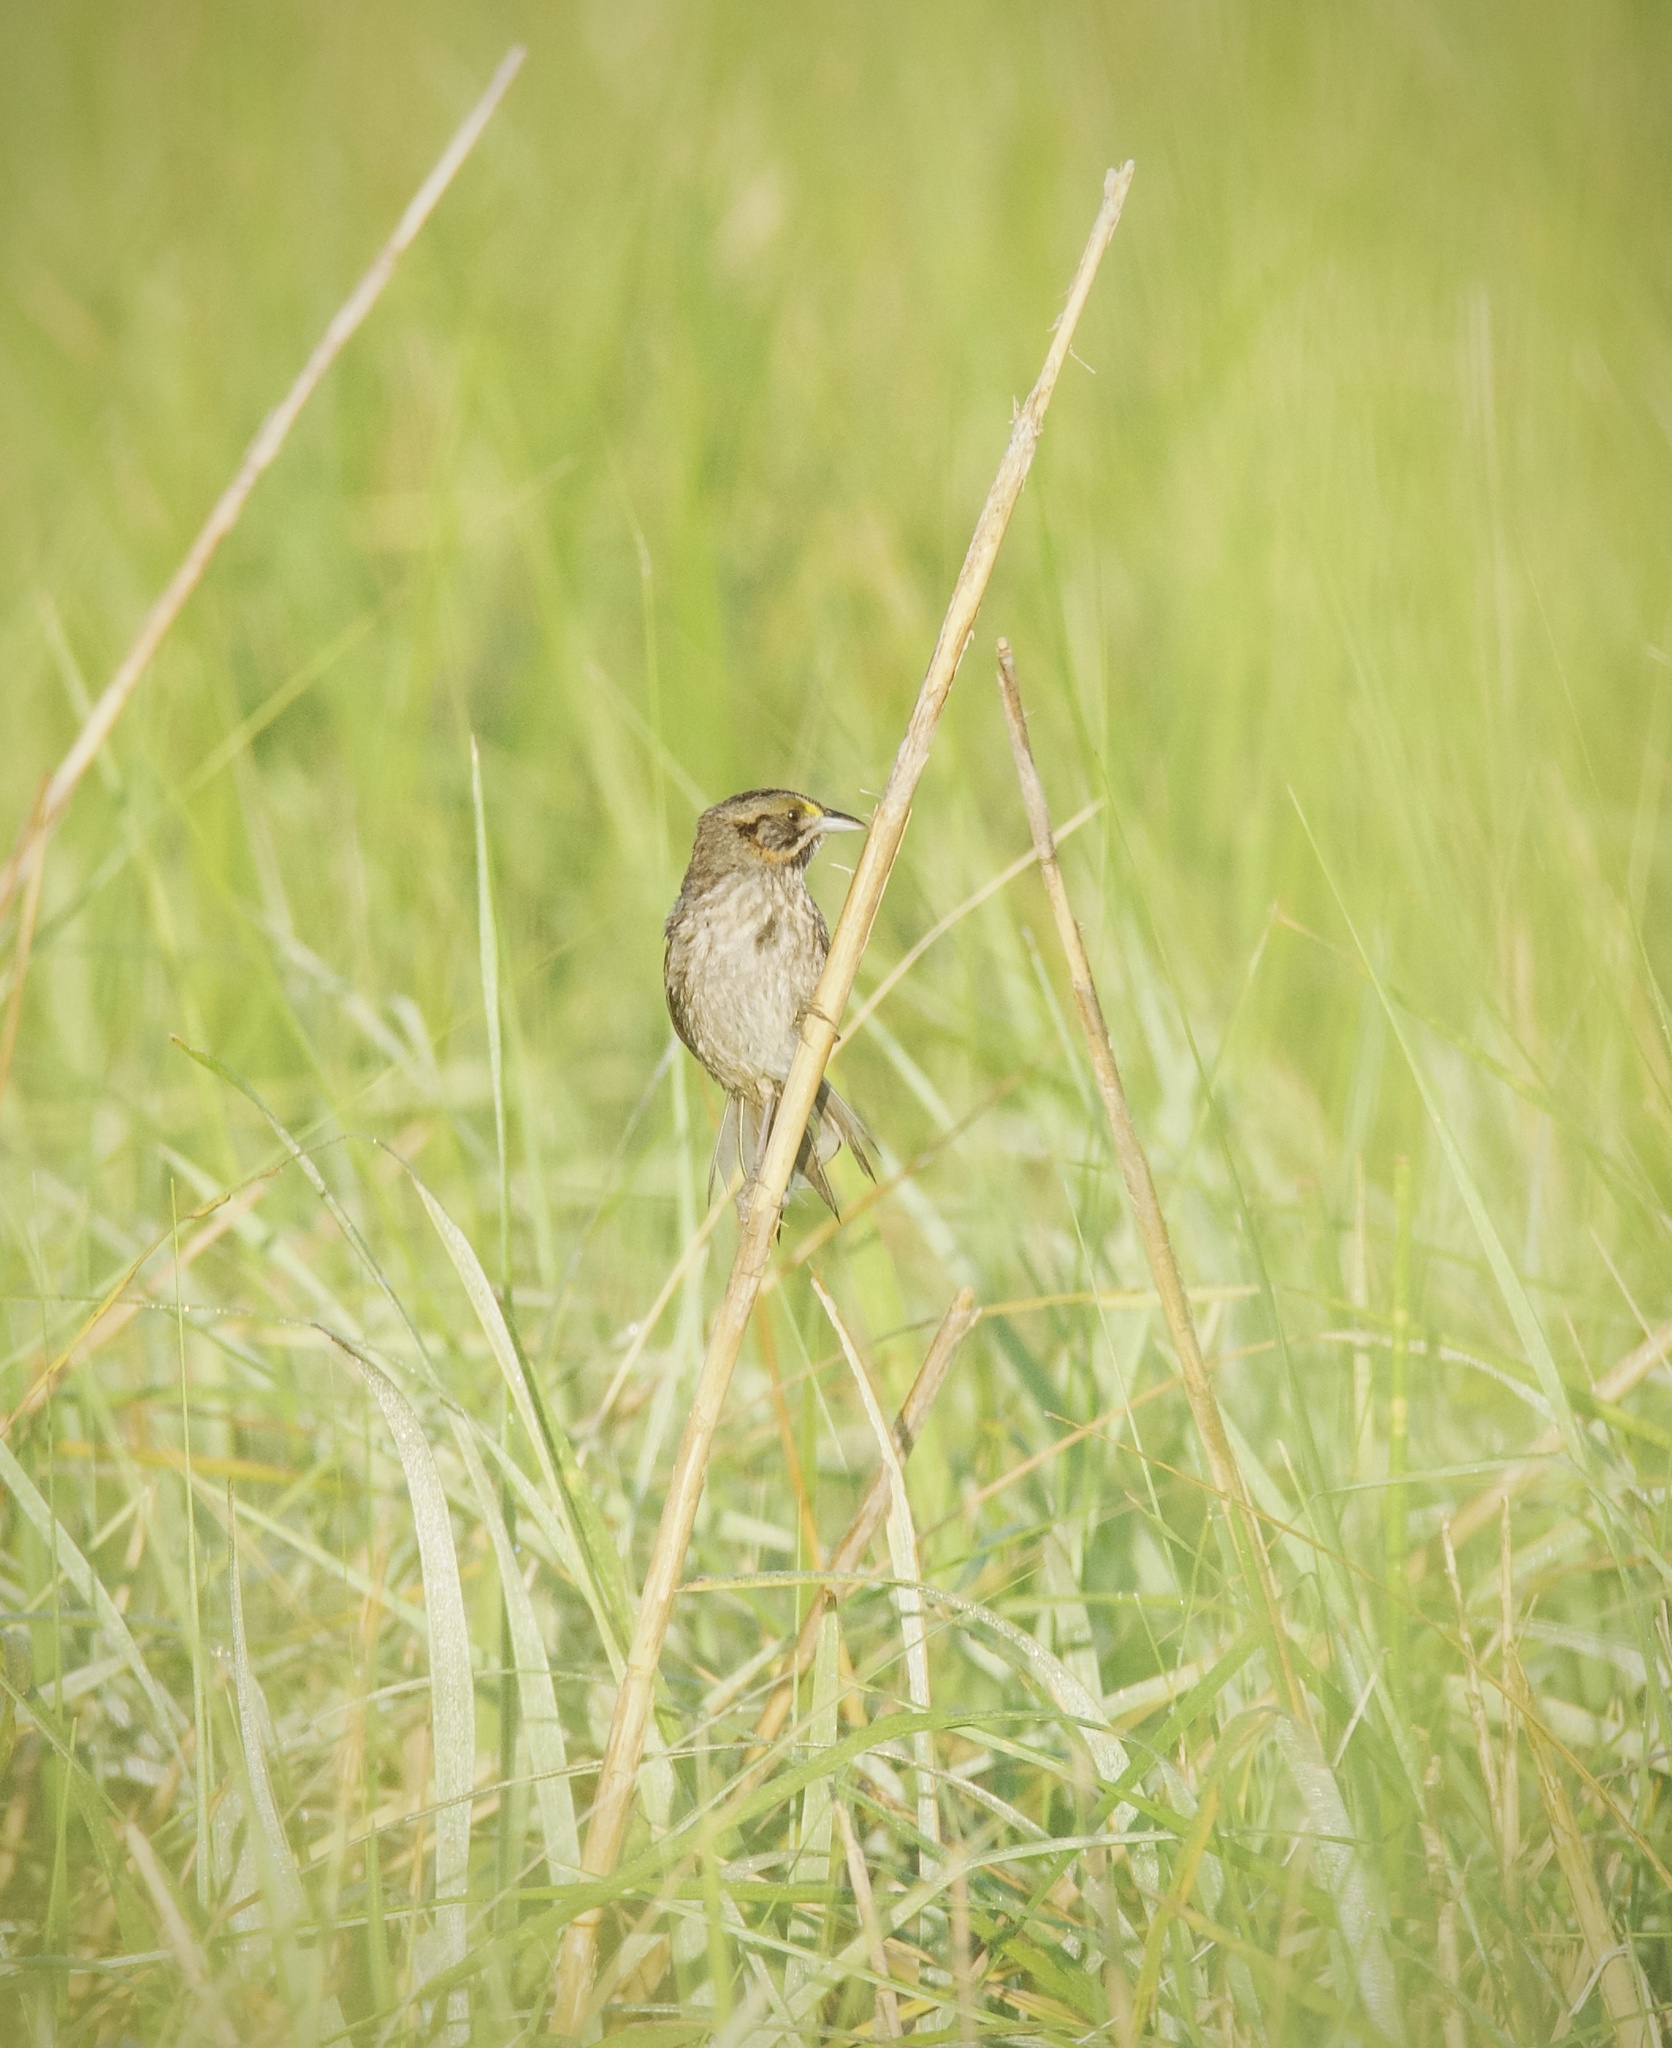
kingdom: Animalia
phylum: Chordata
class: Aves
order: Passeriformes
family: Passerellidae
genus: Ammospiza
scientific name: Ammospiza maritima
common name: Seaside sparrow
